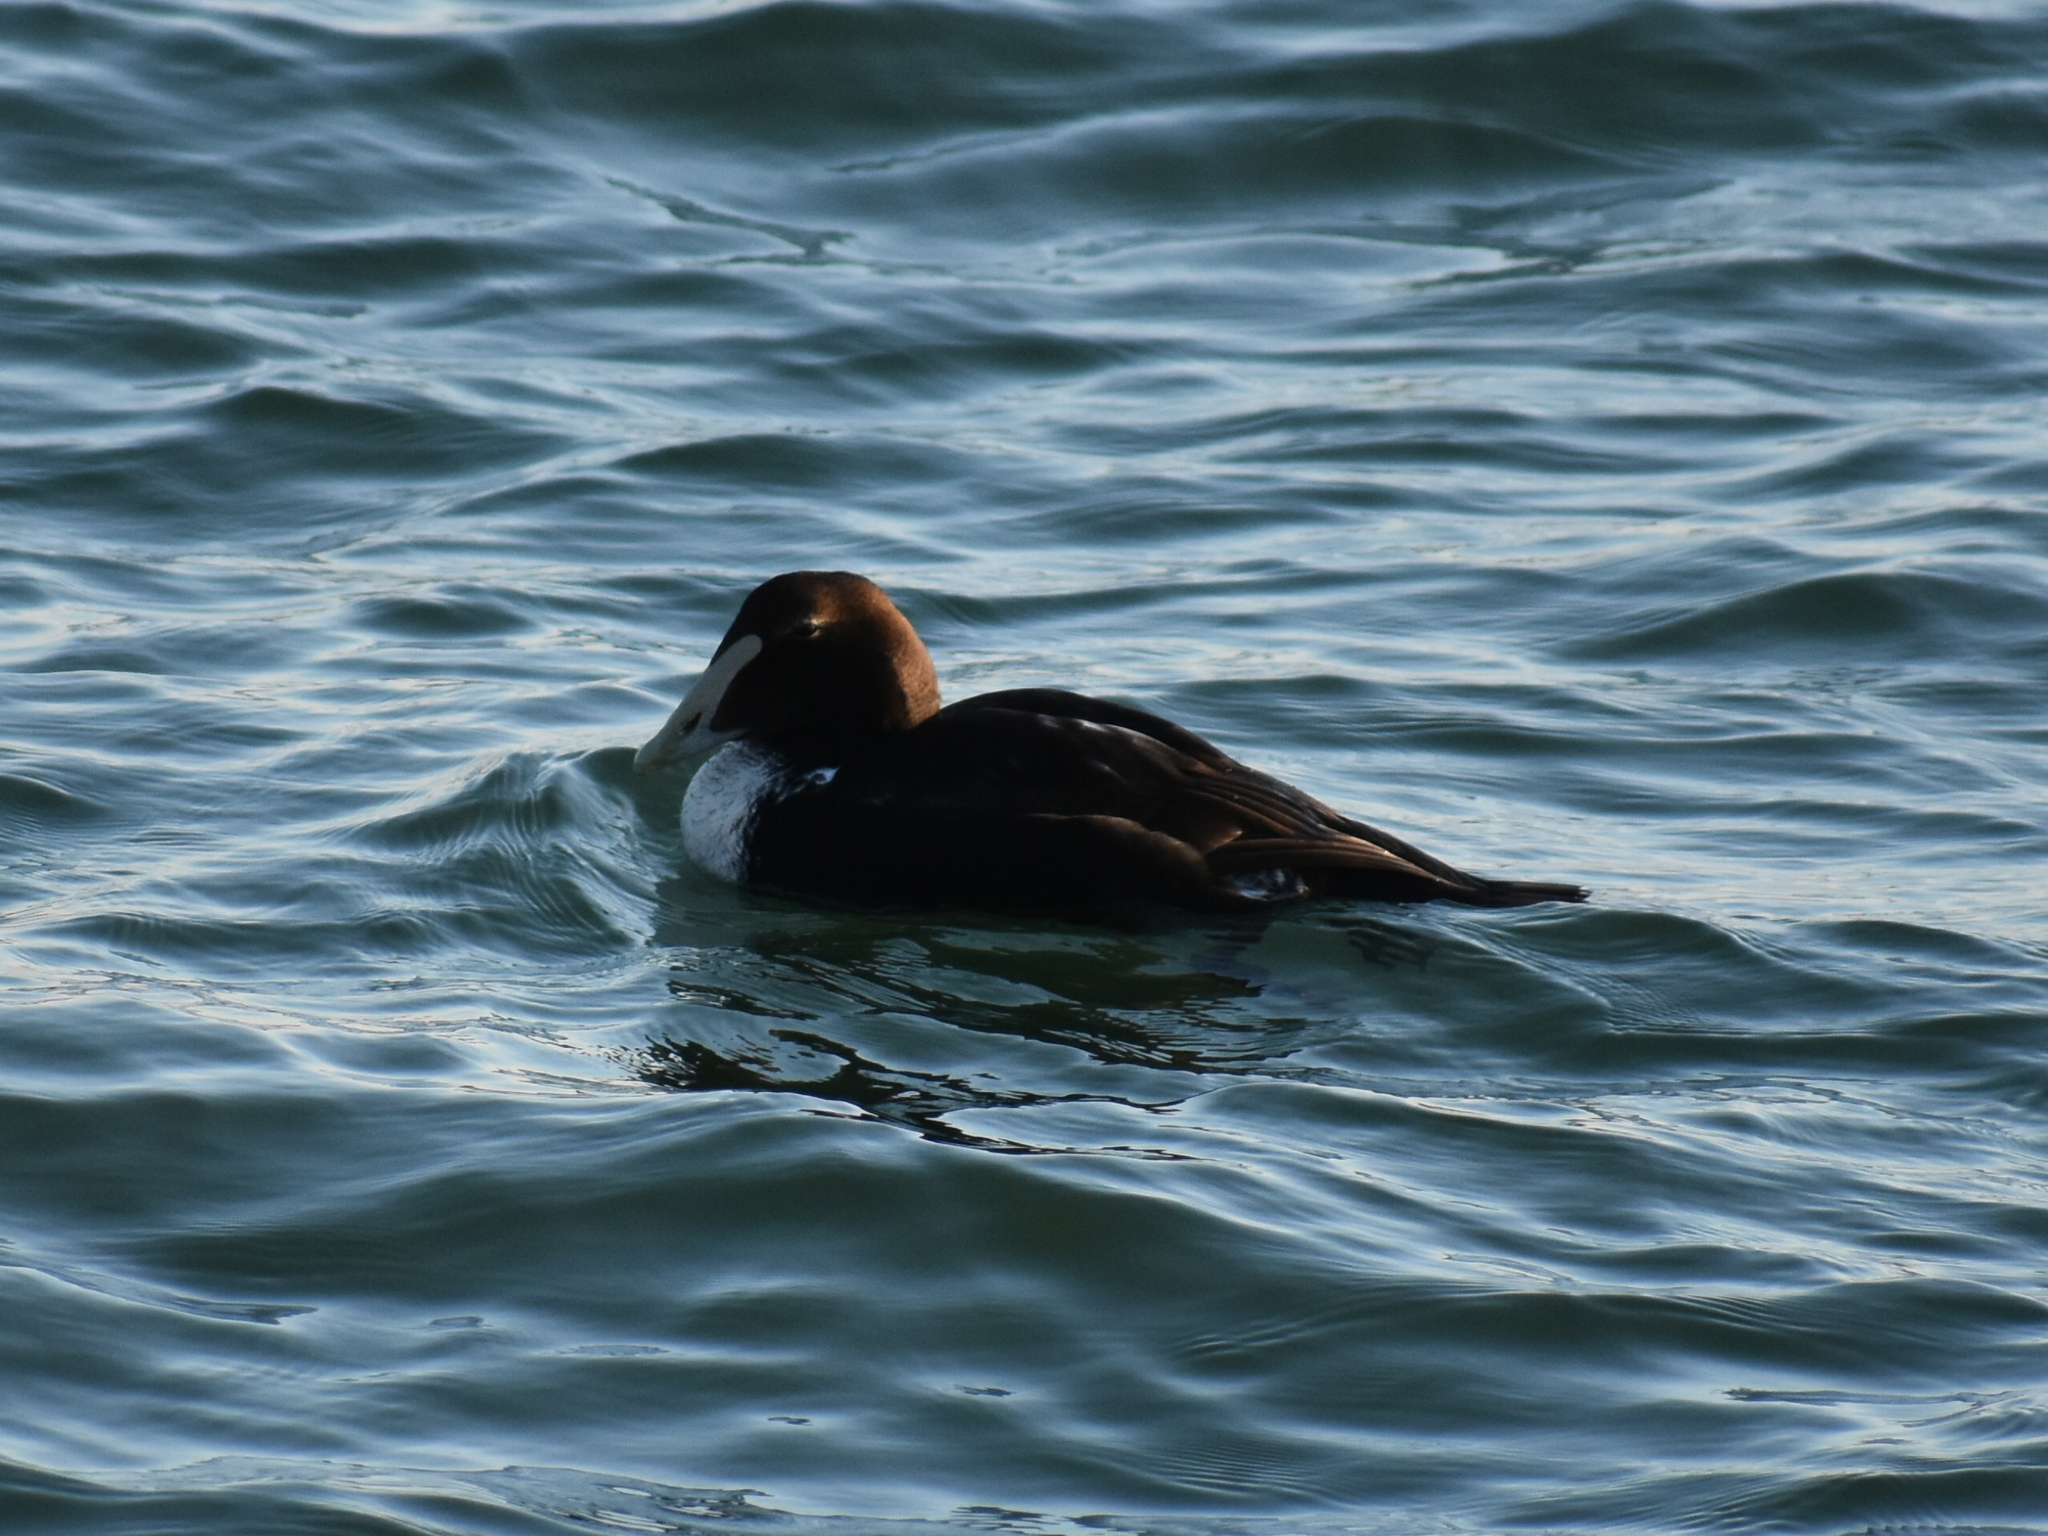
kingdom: Animalia
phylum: Chordata
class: Aves
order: Anseriformes
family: Anatidae
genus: Somateria
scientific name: Somateria mollissima
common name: Common eider
